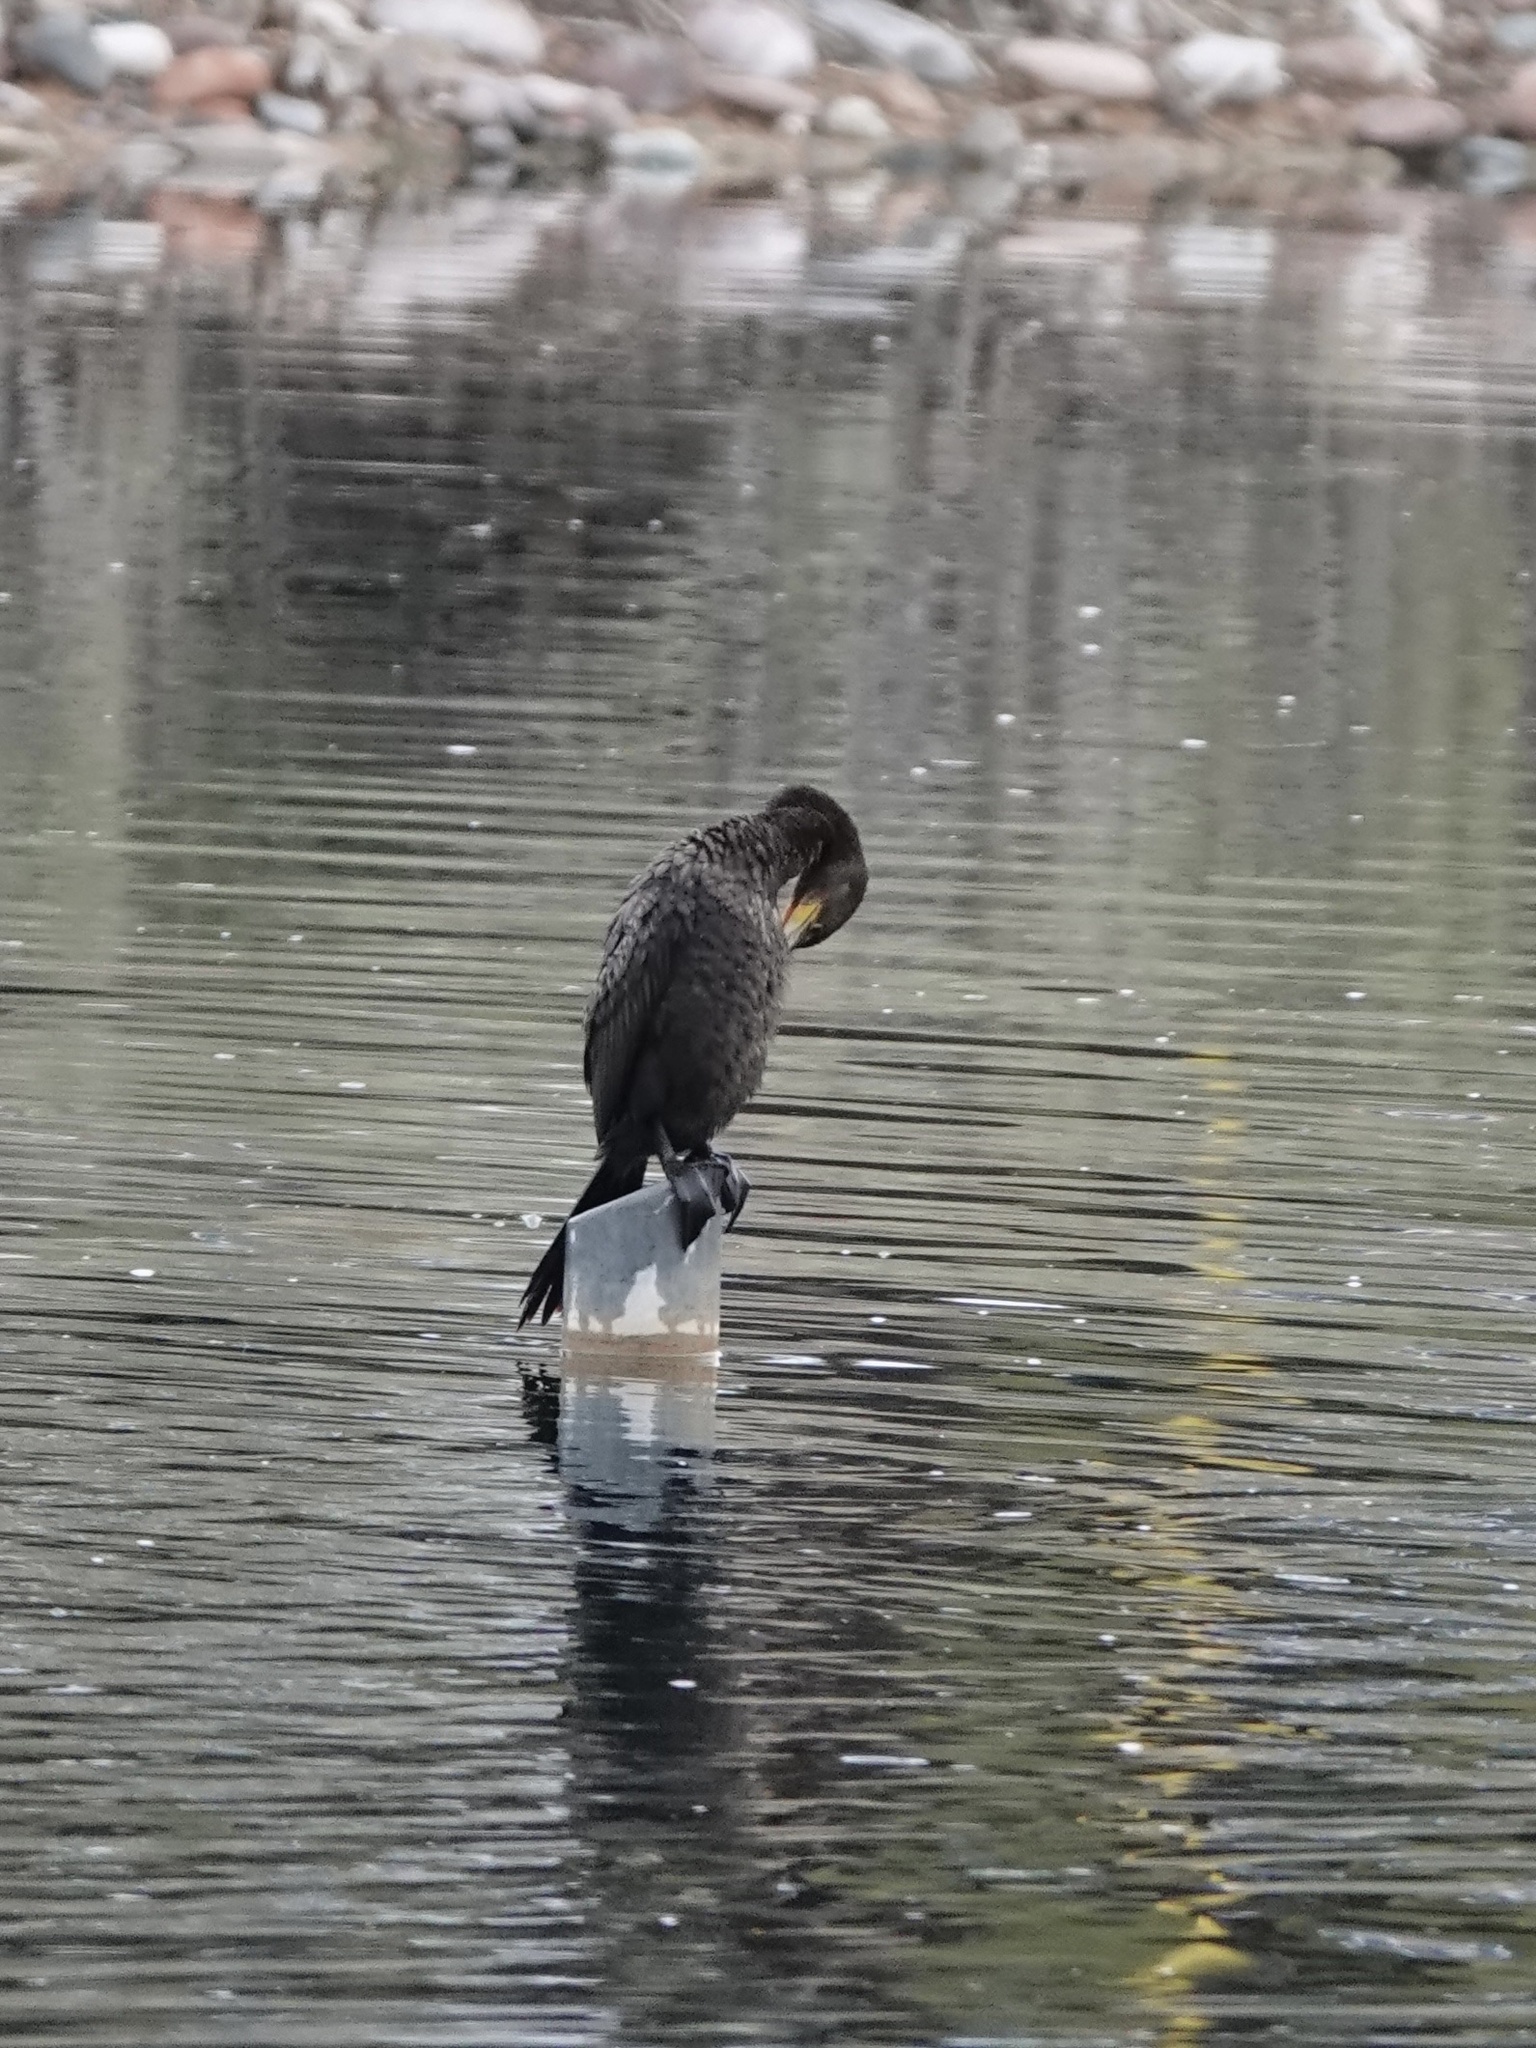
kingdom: Animalia
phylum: Chordata
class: Aves
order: Suliformes
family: Phalacrocoracidae
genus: Phalacrocorax
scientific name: Phalacrocorax brasilianus
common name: Neotropic cormorant
